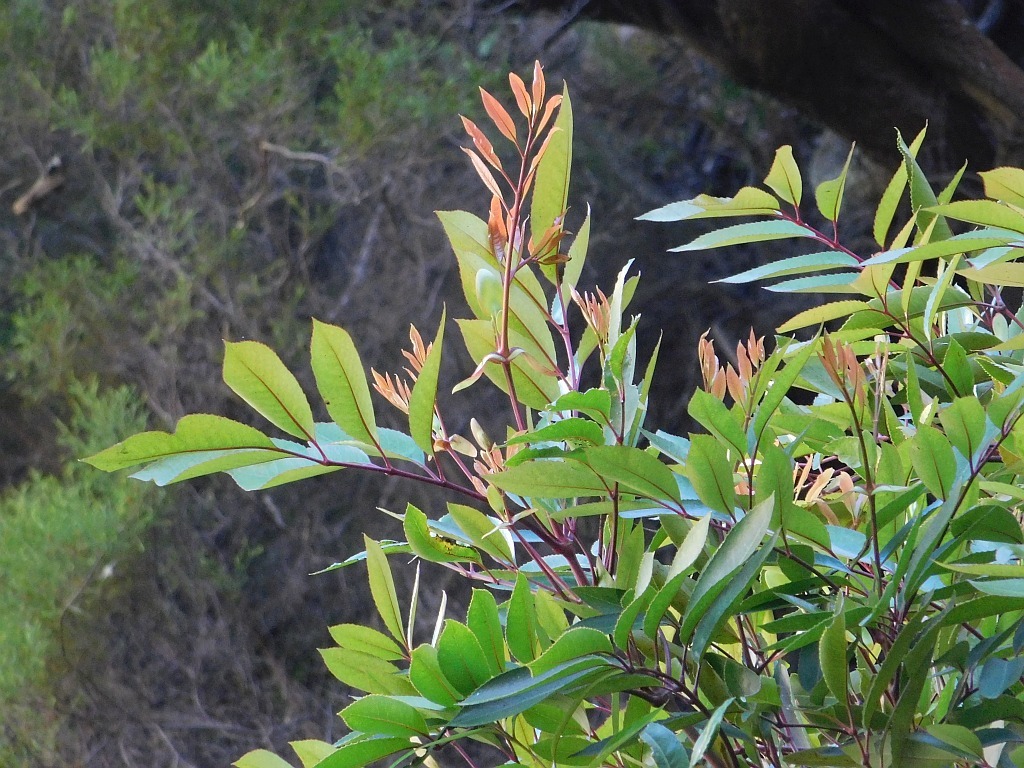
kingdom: Plantae
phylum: Tracheophyta
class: Magnoliopsida
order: Oxalidales
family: Cunoniaceae
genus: Cunonia
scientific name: Cunonia capensis
